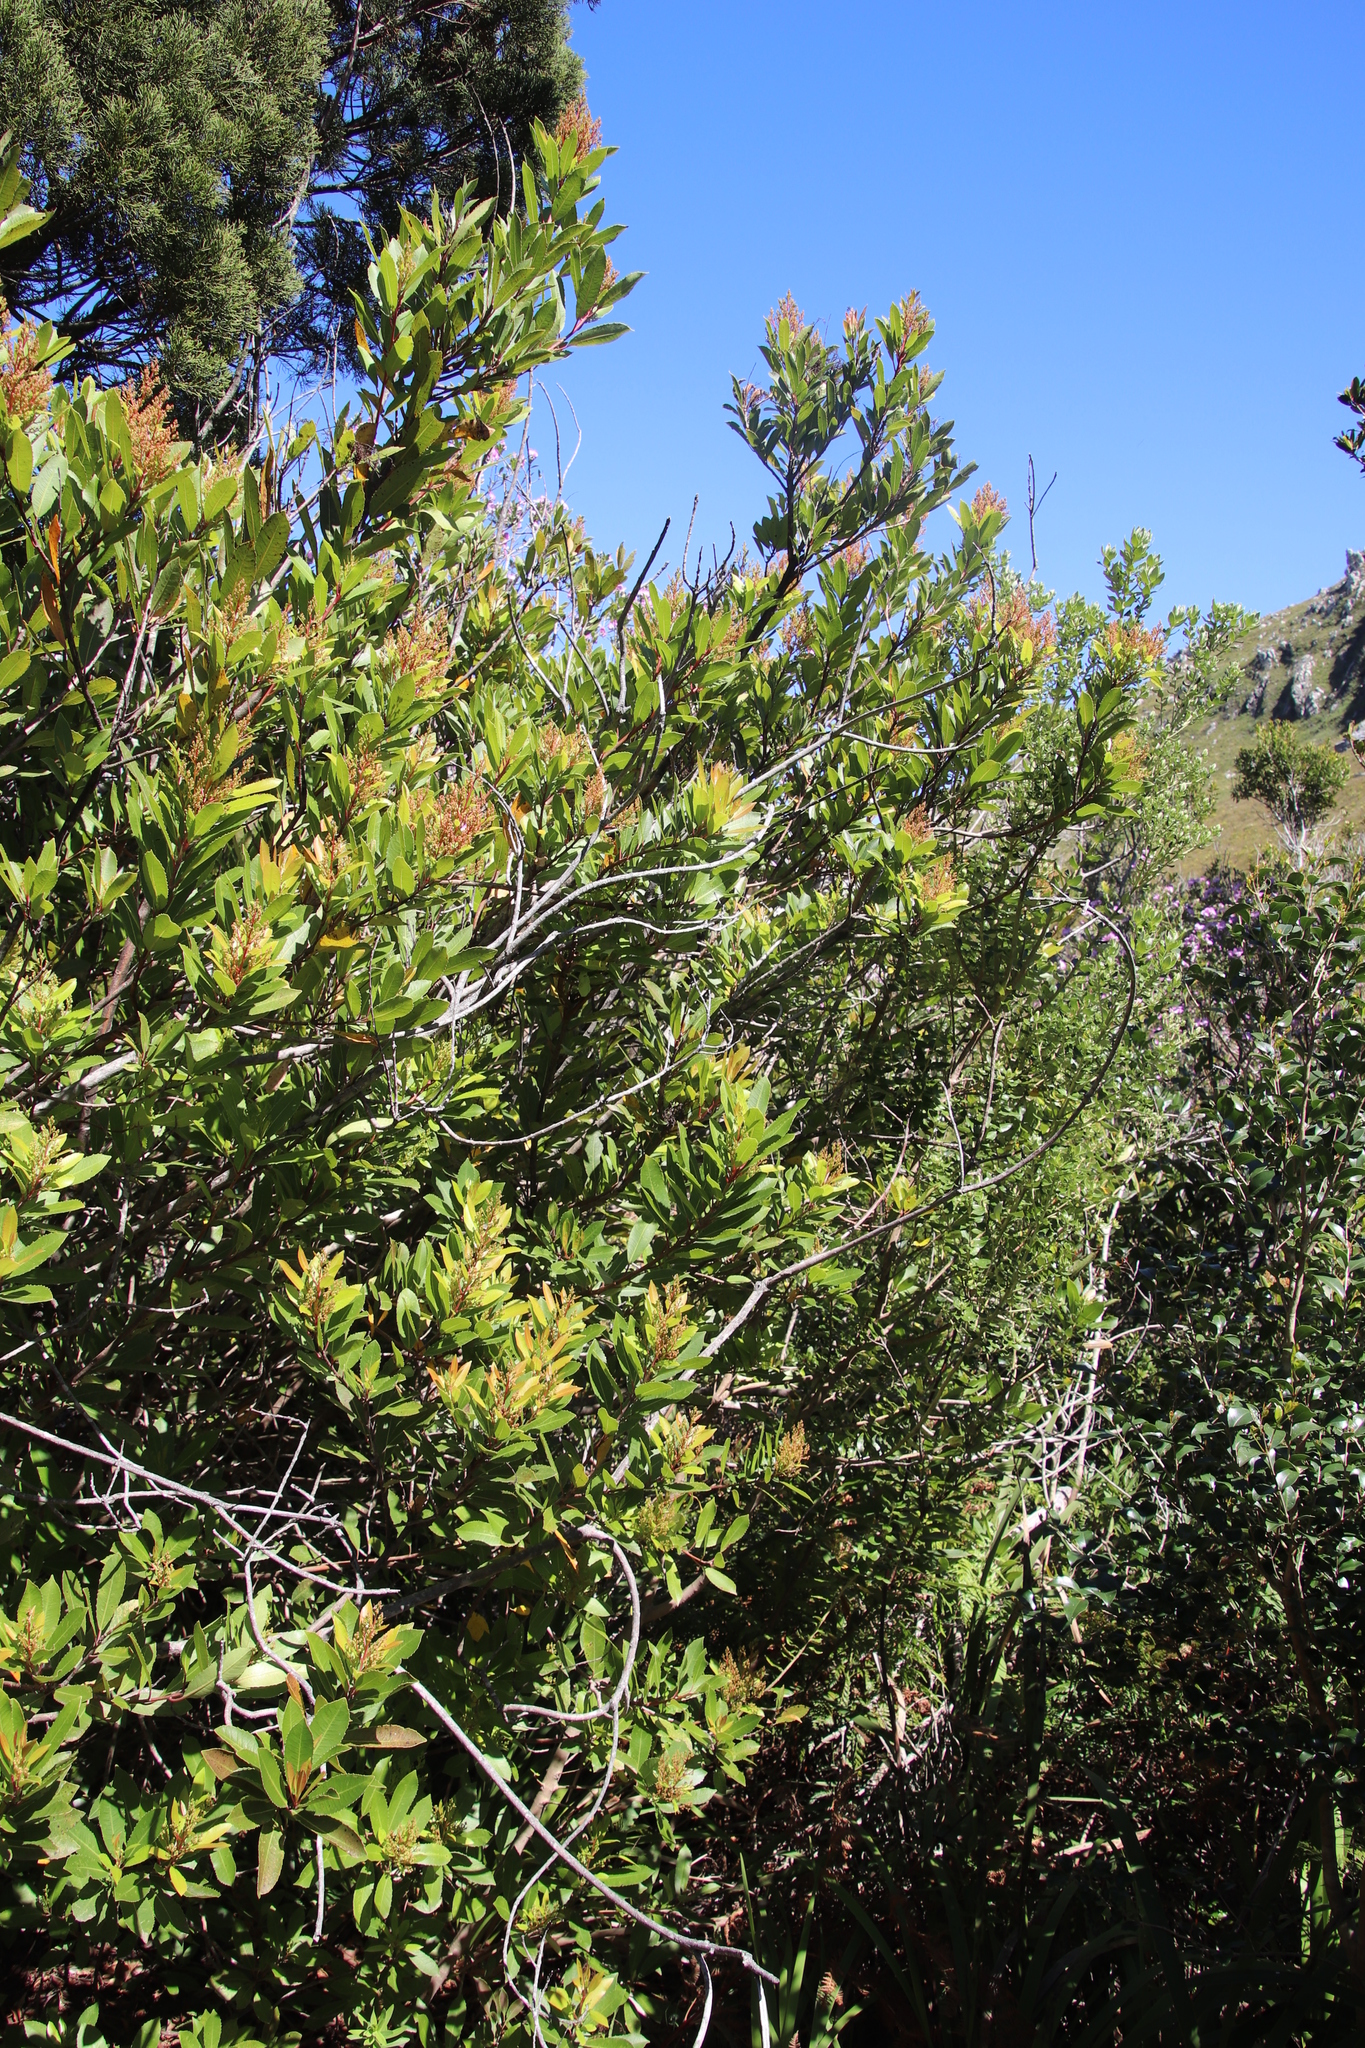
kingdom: Plantae
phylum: Tracheophyta
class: Magnoliopsida
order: Sapindales
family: Anacardiaceae
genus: Laurophyllus
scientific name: Laurophyllus capensis
